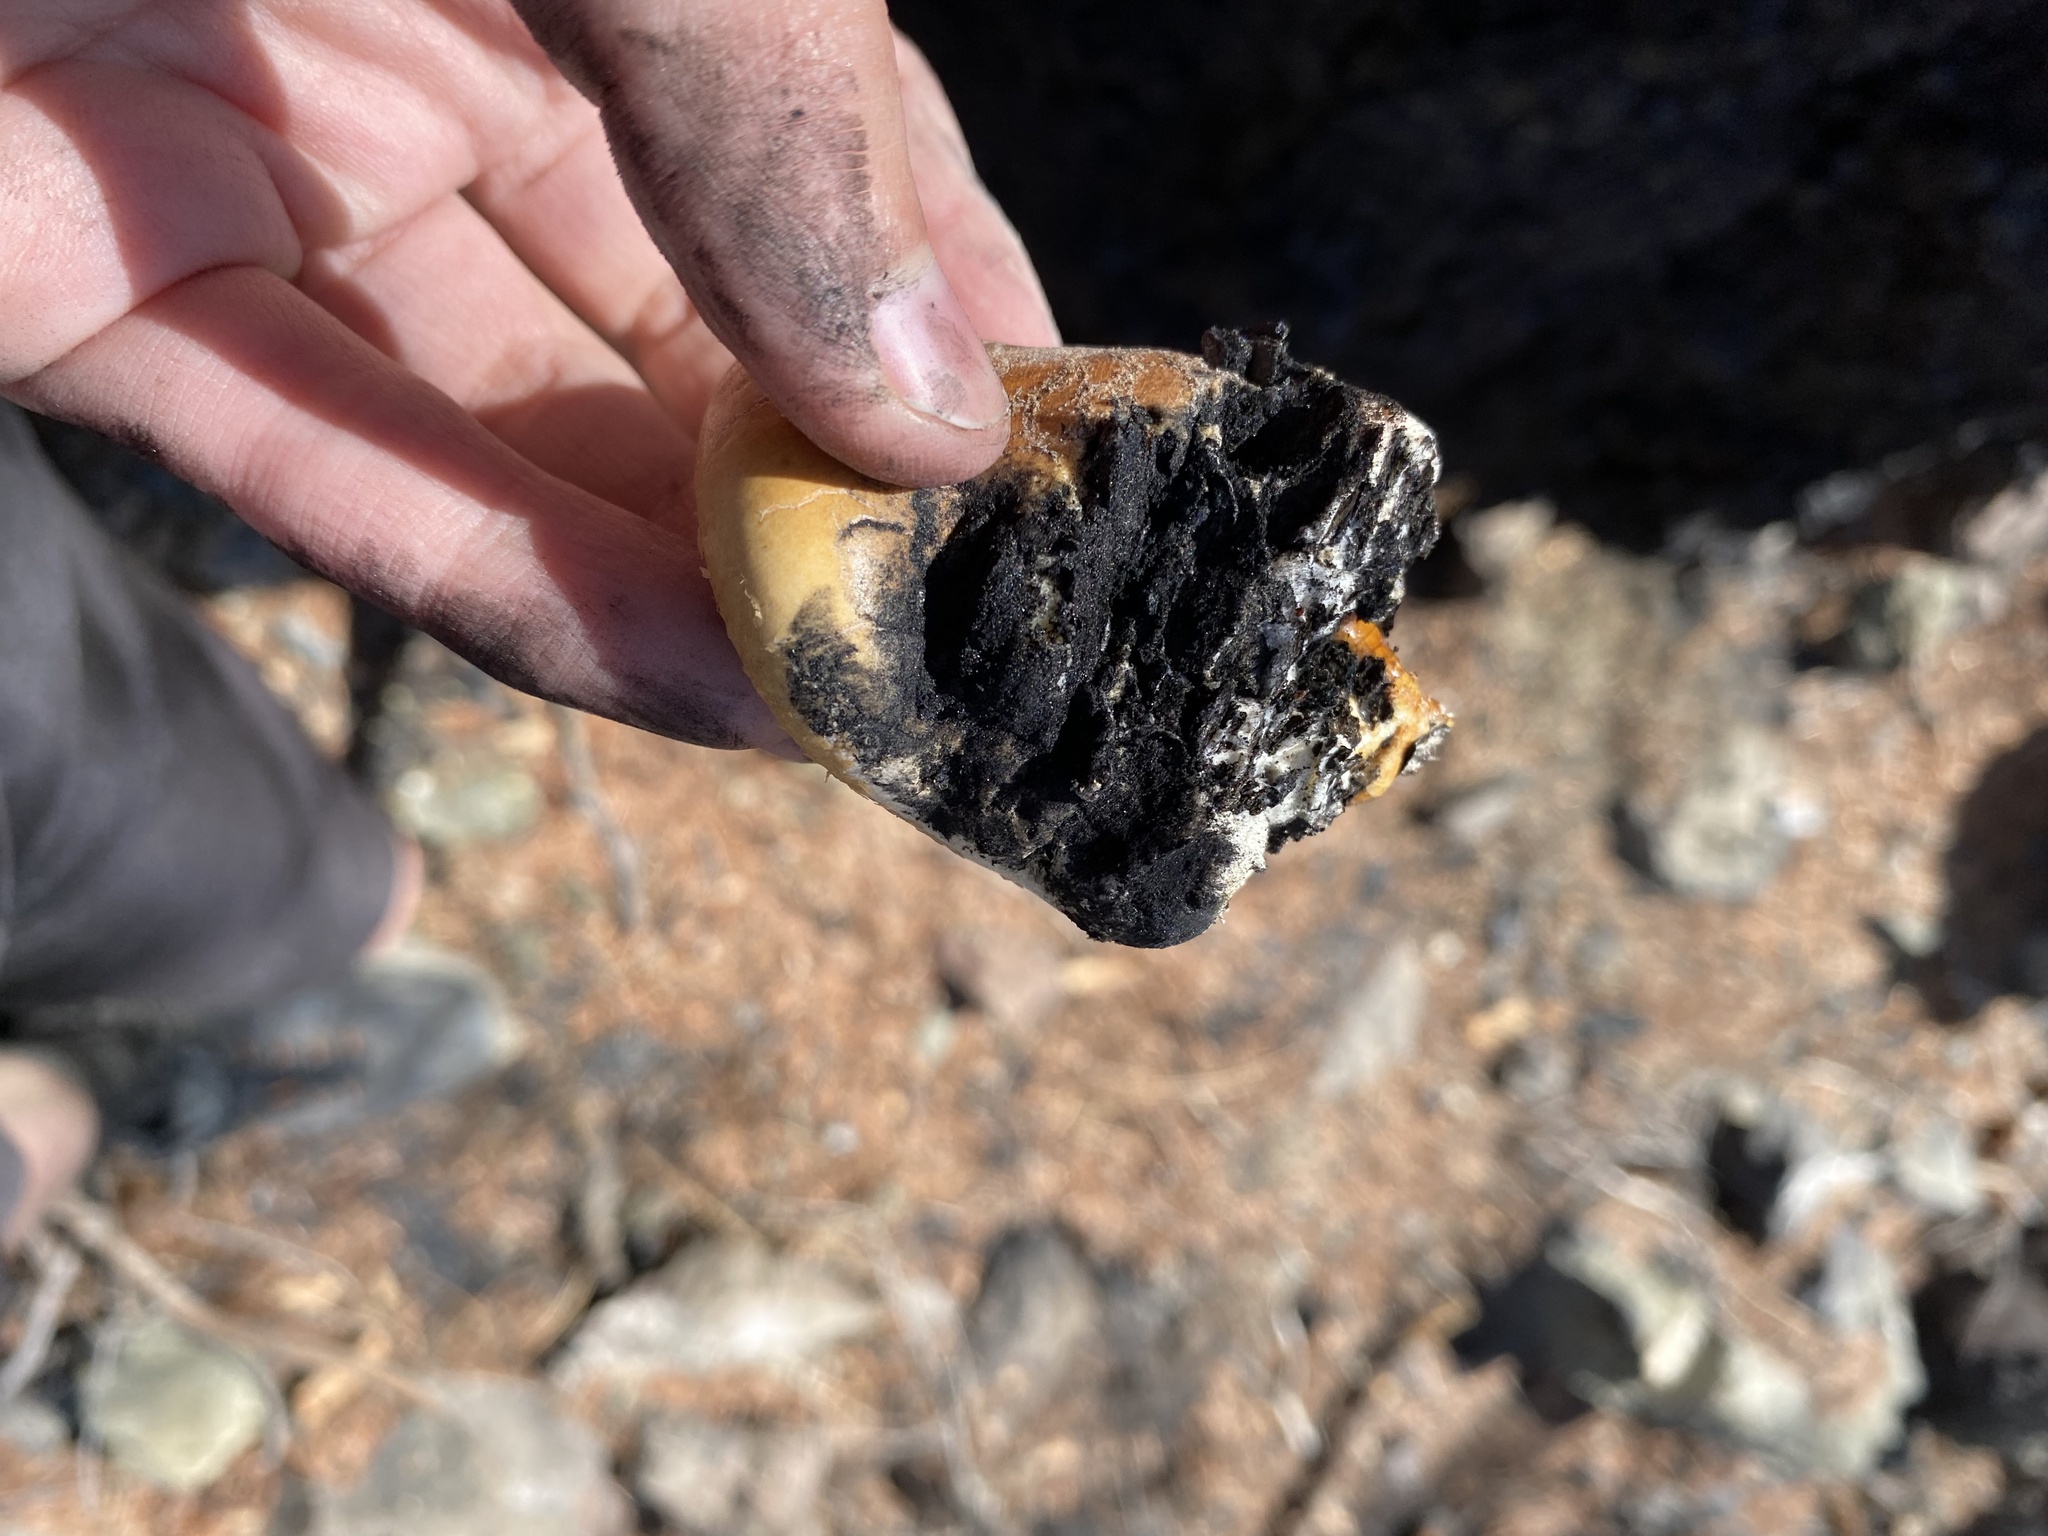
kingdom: Fungi
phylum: Basidiomycota
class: Agaricomycetes
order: Polyporales
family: Polyporaceae
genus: Cryptoporus
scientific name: Cryptoporus volvatus
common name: Veiled polypore
